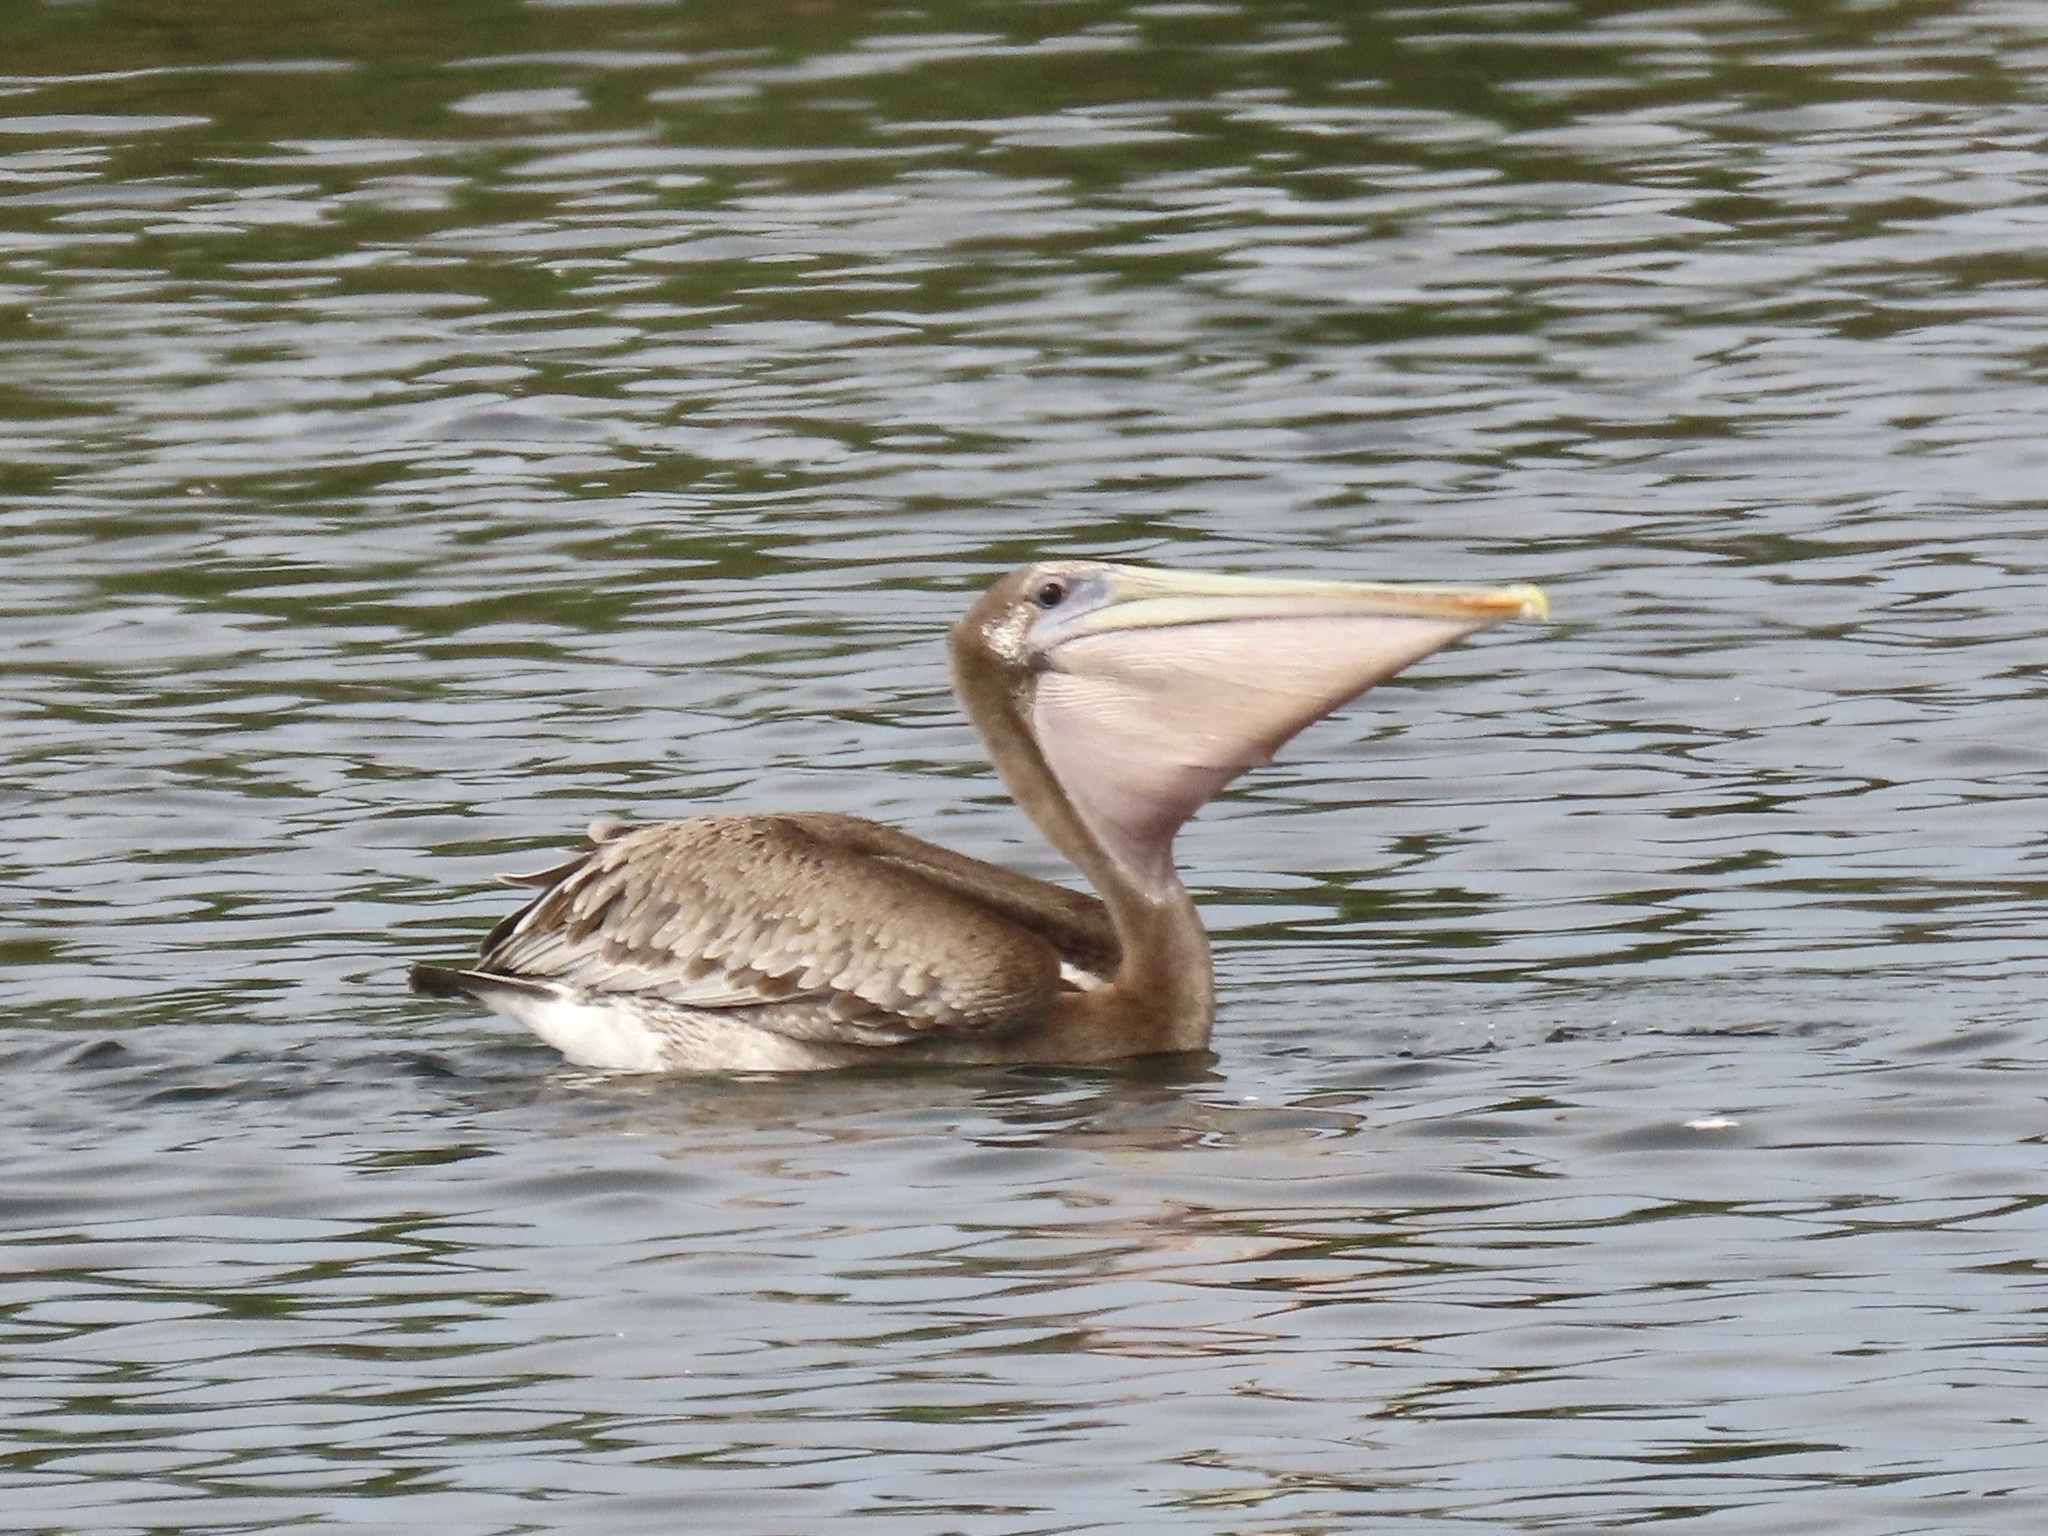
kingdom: Animalia
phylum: Chordata
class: Aves
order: Pelecaniformes
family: Pelecanidae
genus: Pelecanus
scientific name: Pelecanus occidentalis
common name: Brown pelican
